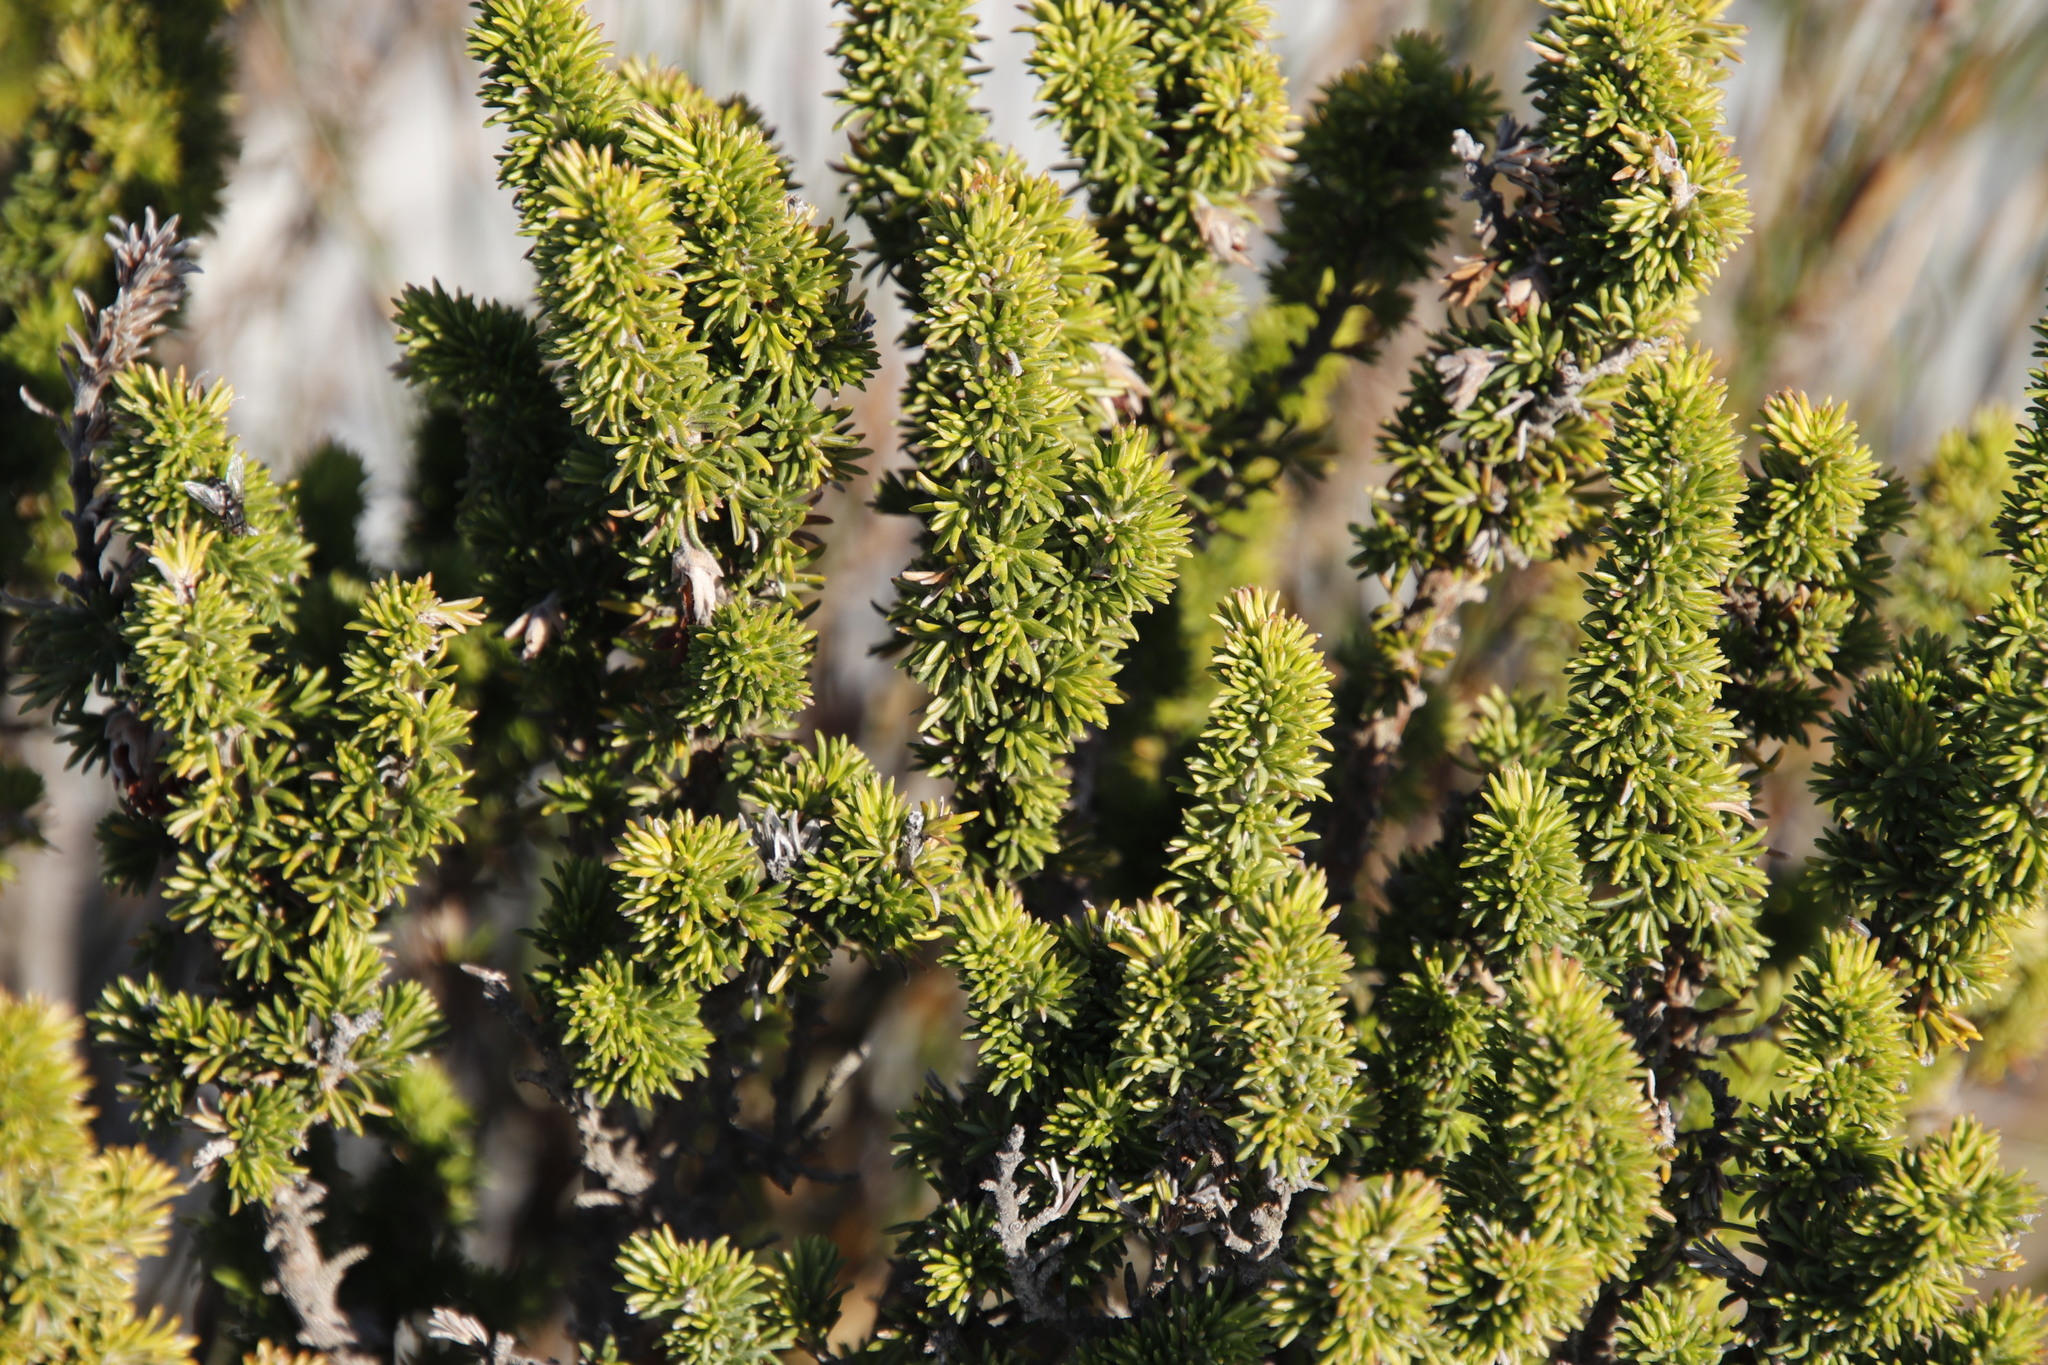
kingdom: Plantae
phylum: Tracheophyta
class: Magnoliopsida
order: Ericales
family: Ericaceae
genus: Erica
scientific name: Erica coccinea
